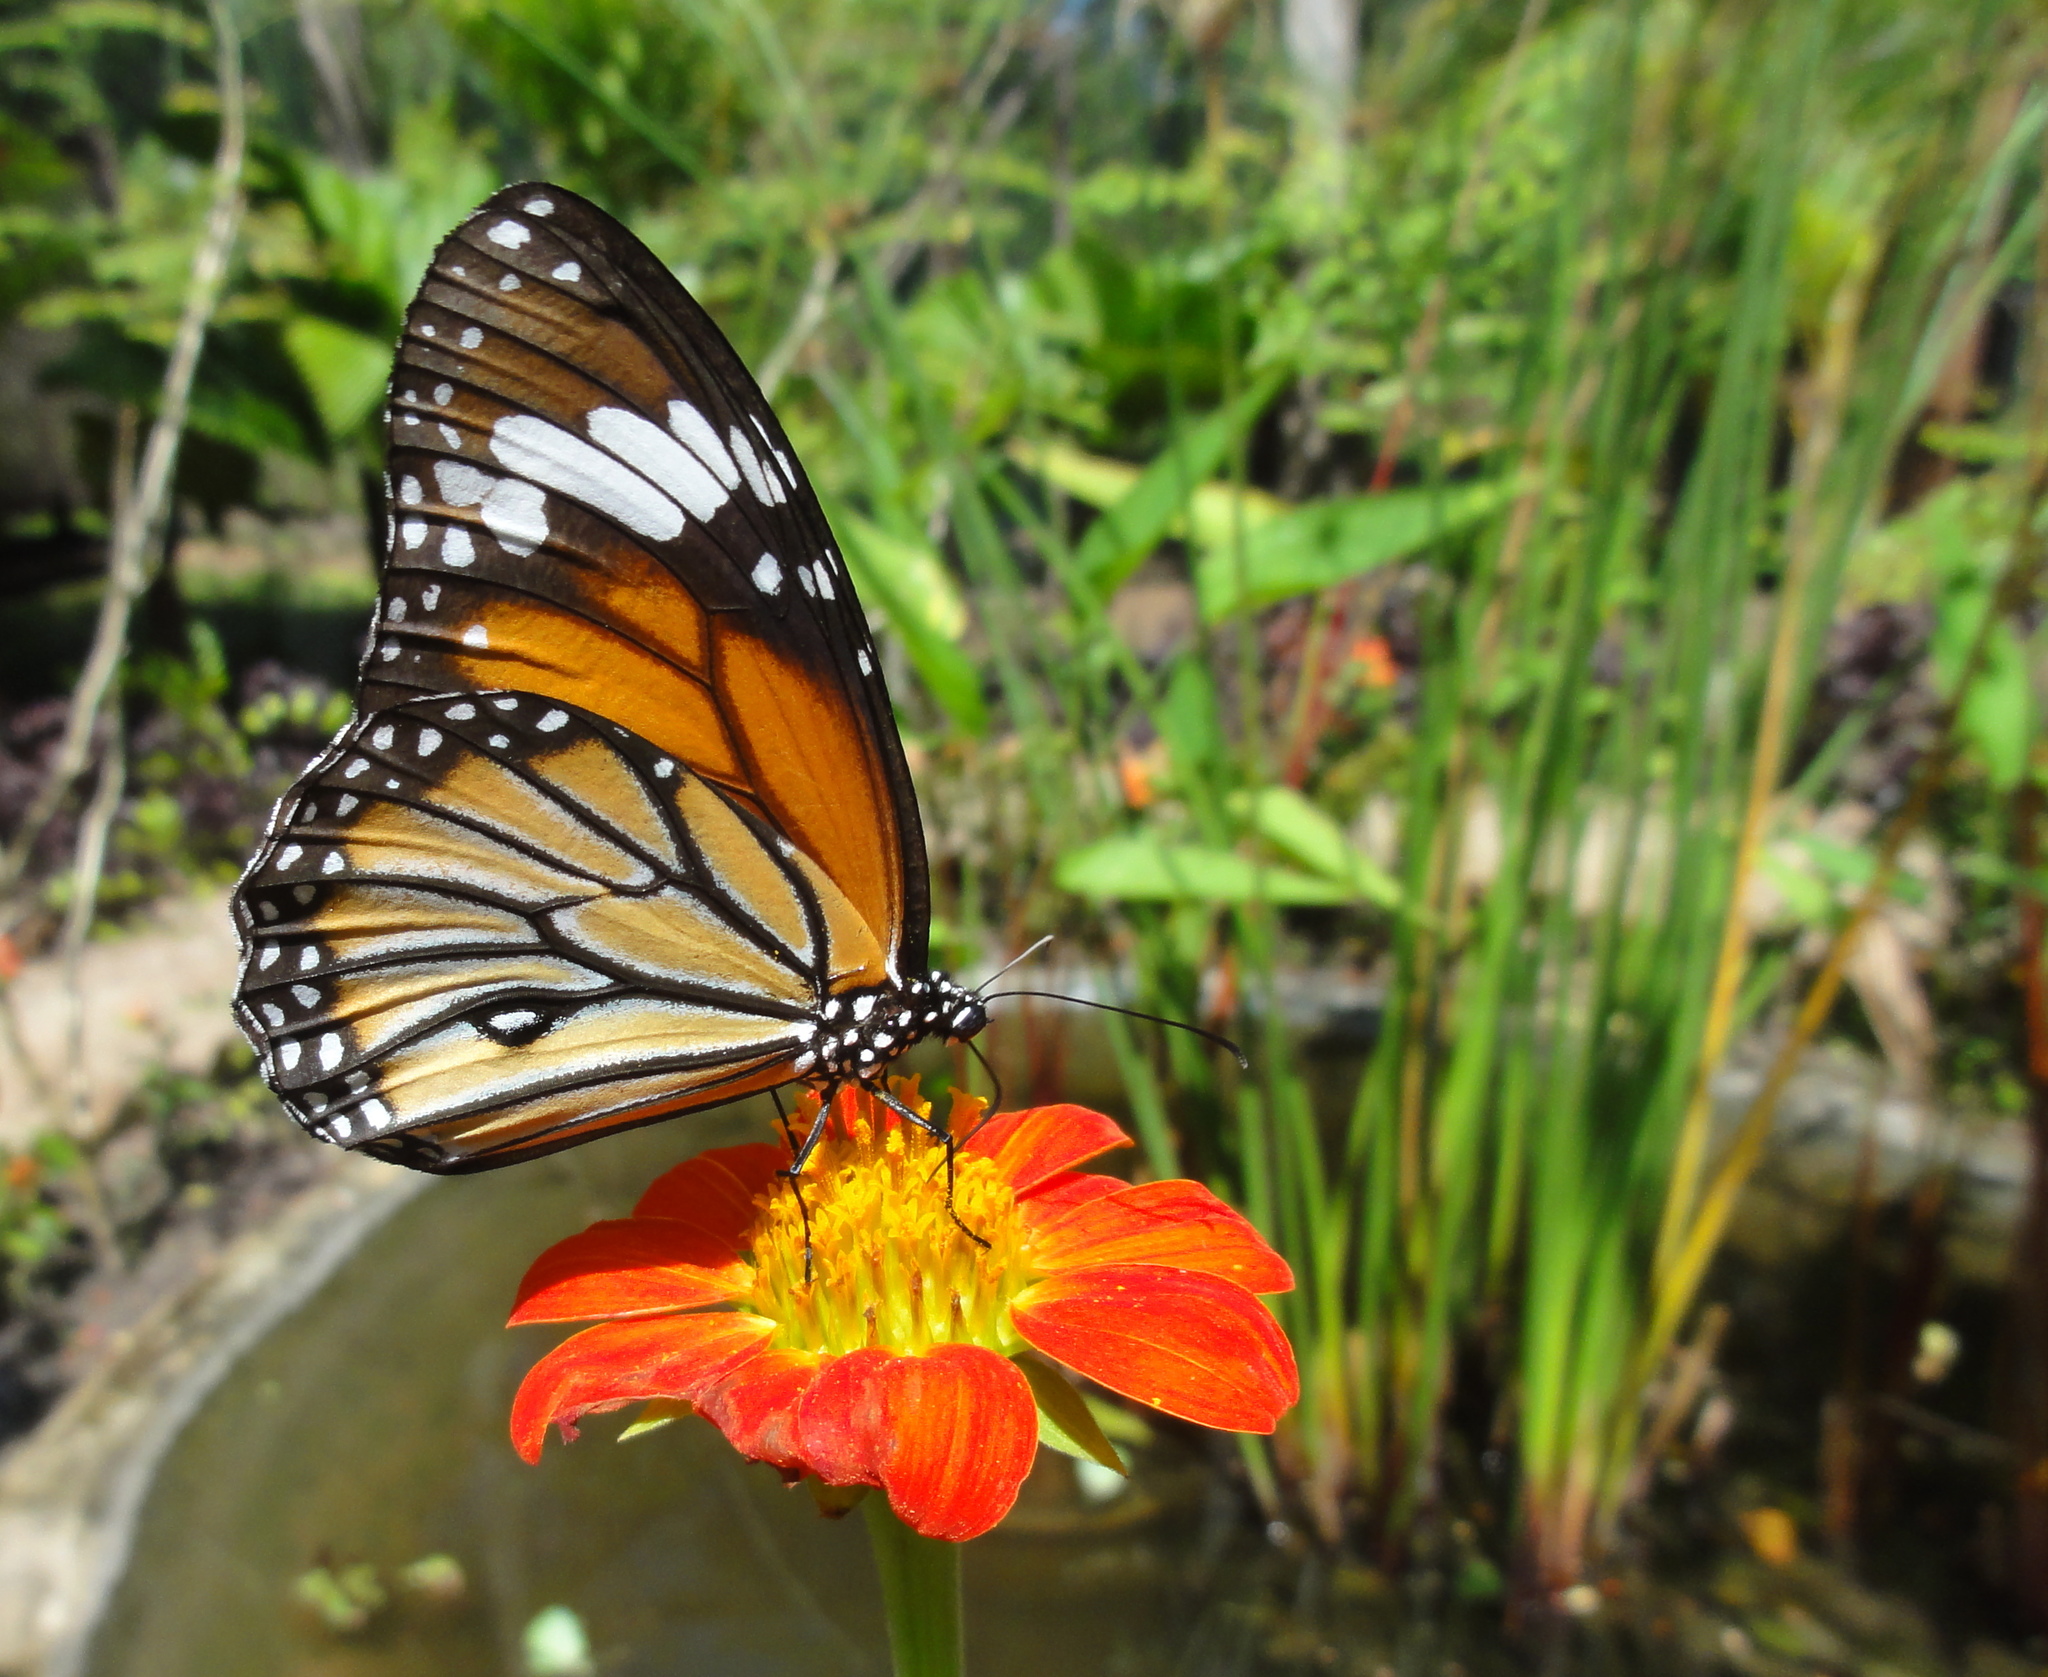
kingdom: Animalia
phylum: Arthropoda
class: Insecta
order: Lepidoptera
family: Nymphalidae
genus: Danaus
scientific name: Danaus genutia
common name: Common tiger butterfly
